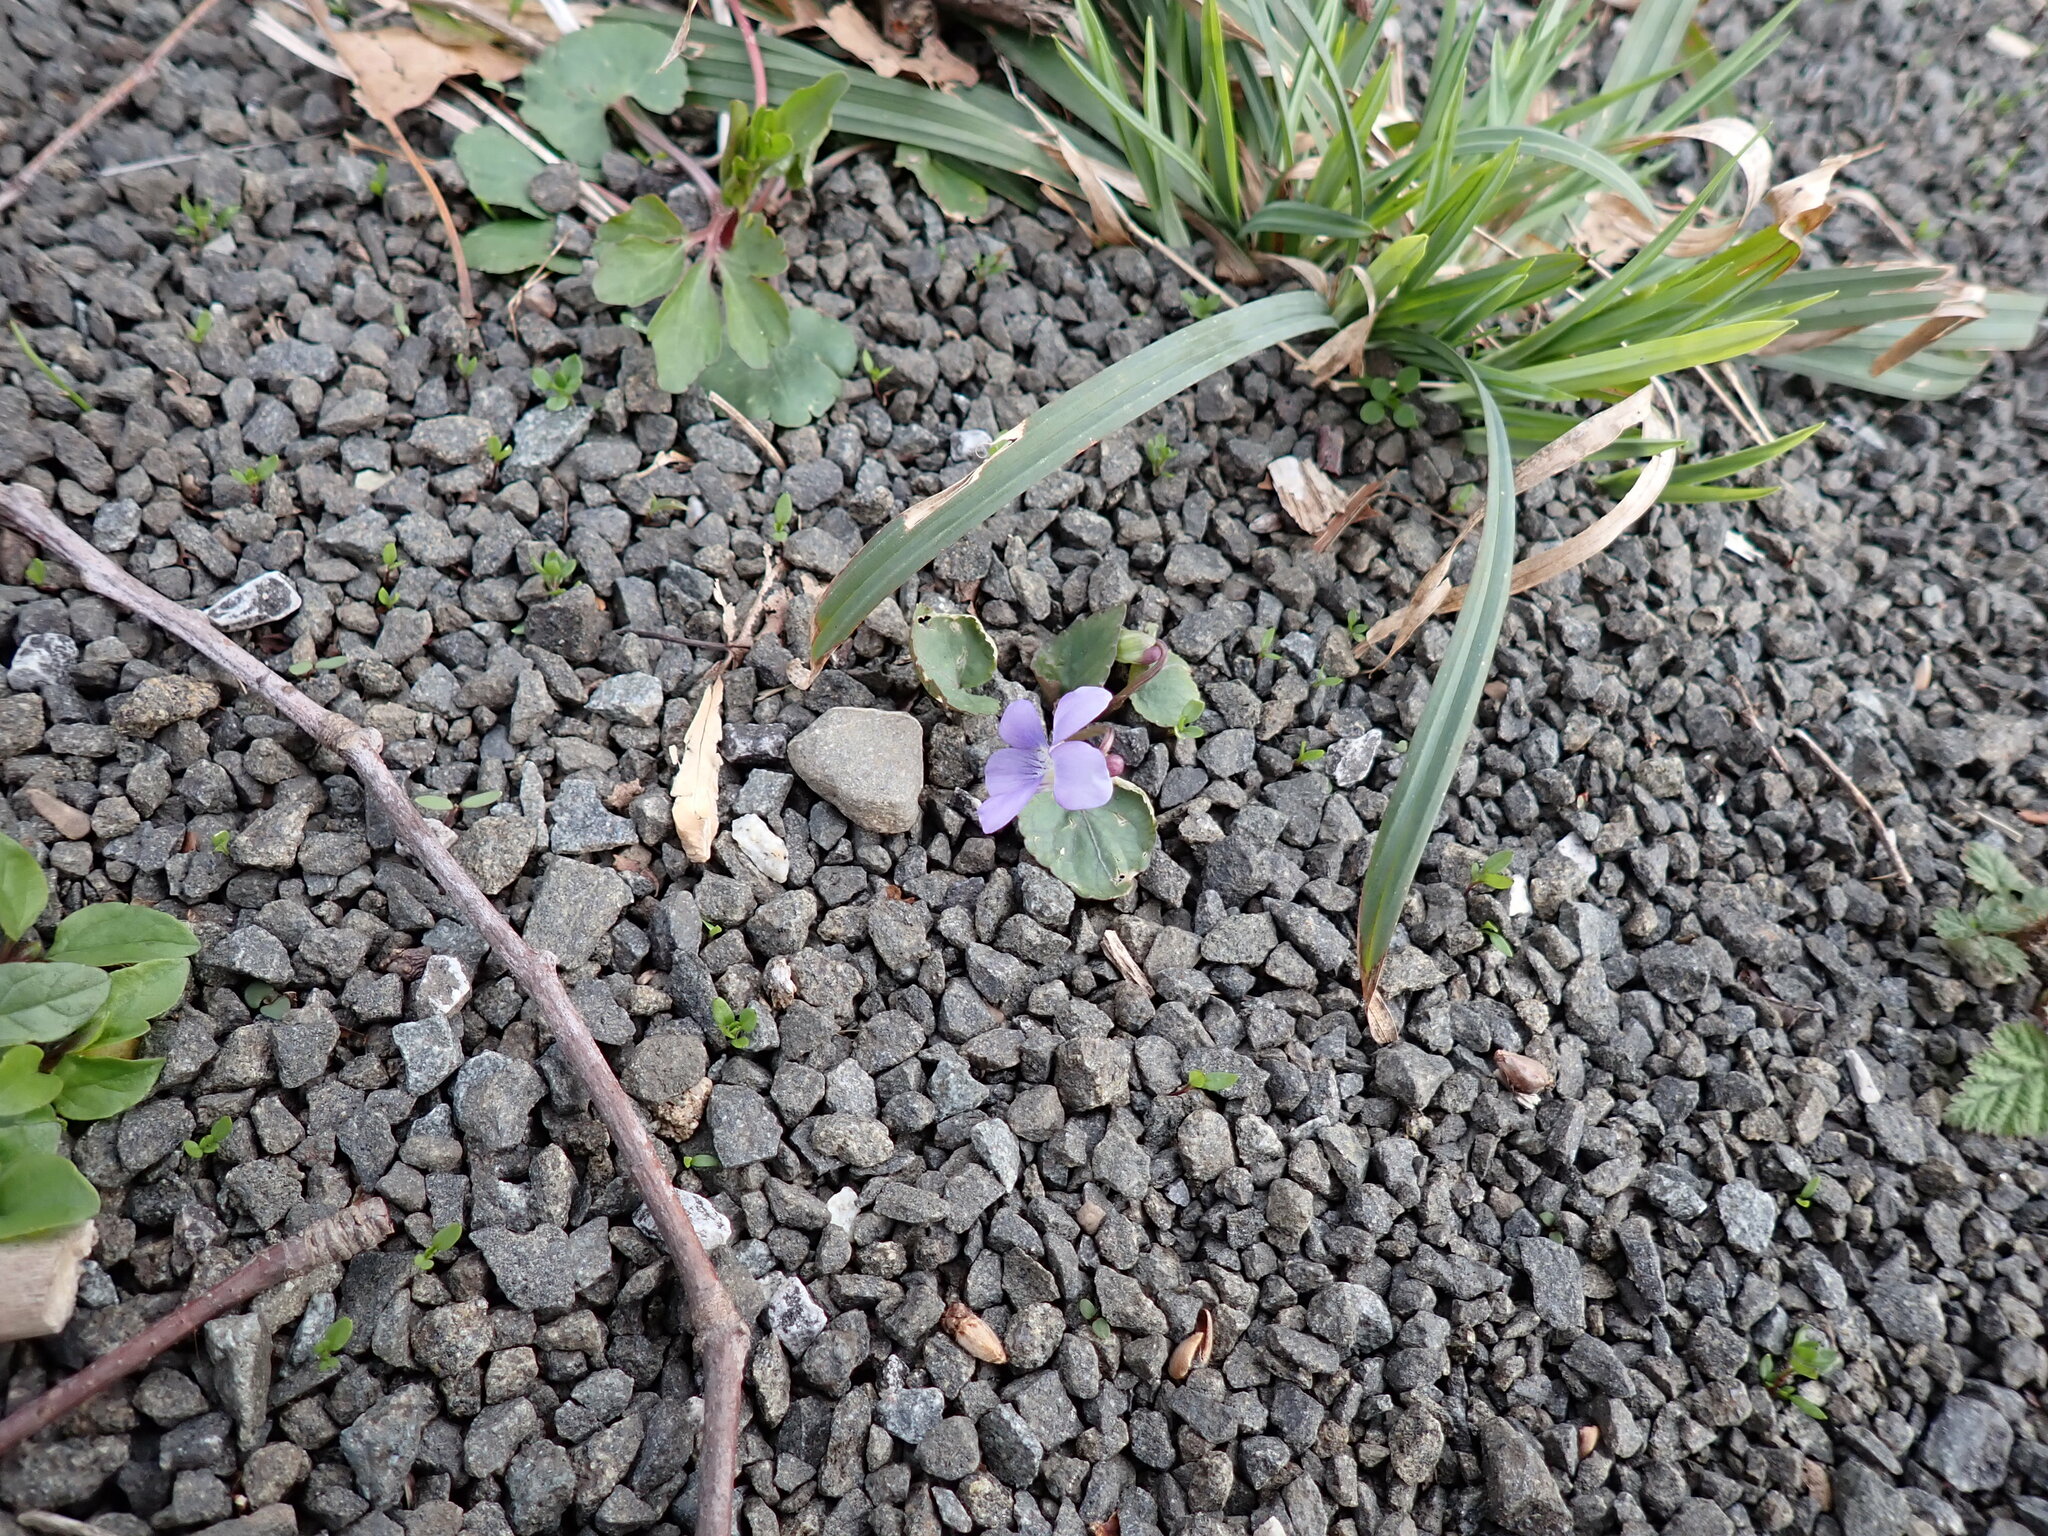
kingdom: Plantae
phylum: Tracheophyta
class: Magnoliopsida
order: Malpighiales
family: Violaceae
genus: Viola
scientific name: Viola sororia
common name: Dooryard violet
